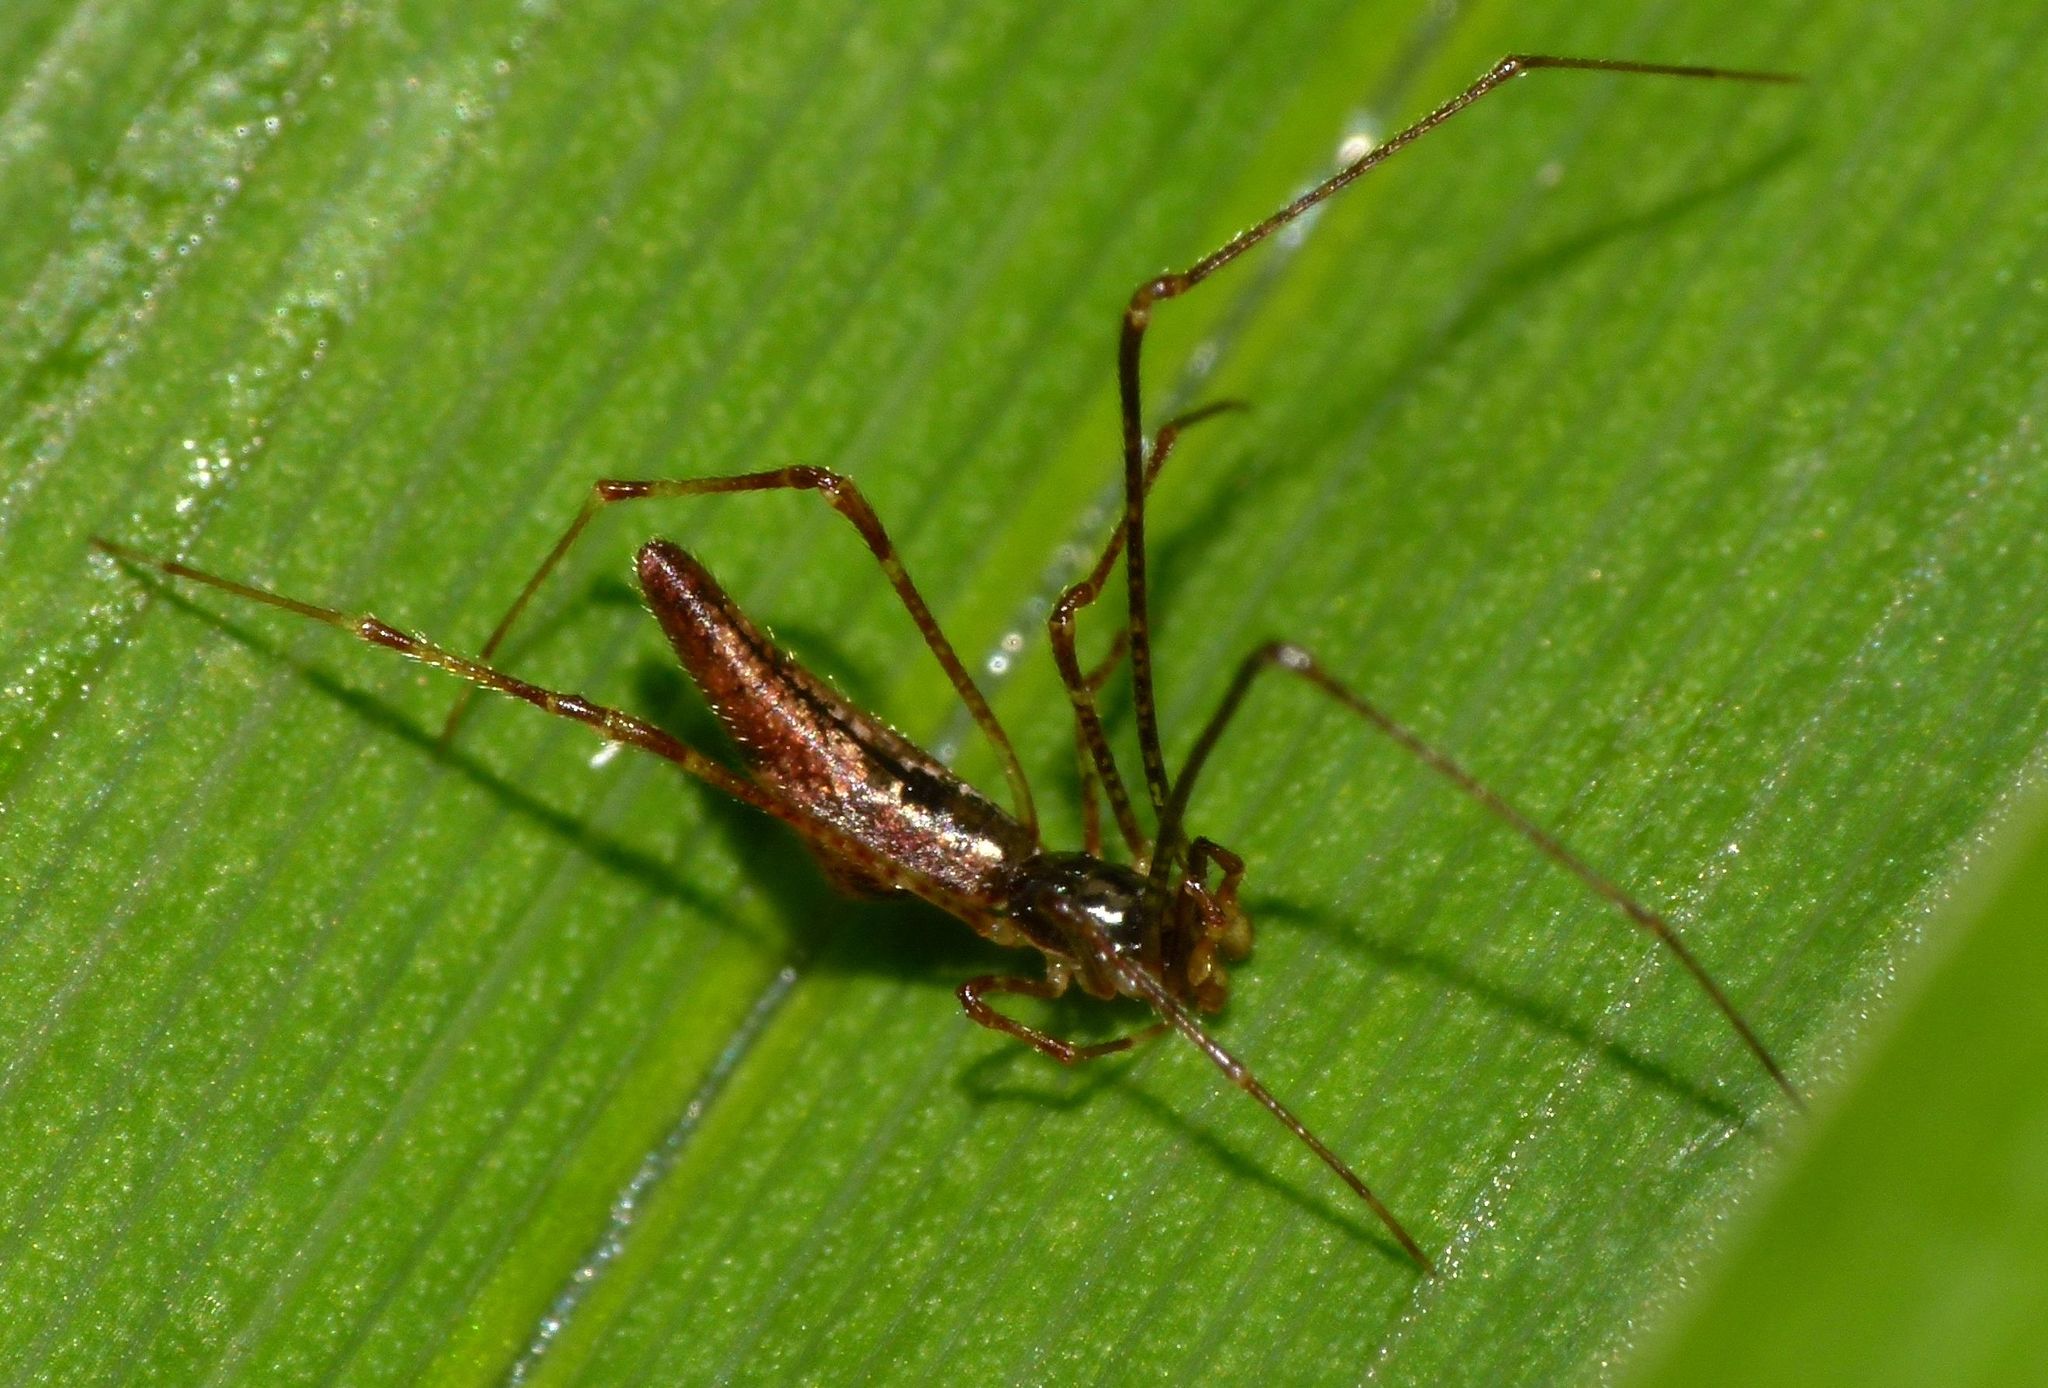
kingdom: Animalia
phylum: Arthropoda
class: Arachnida
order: Araneae
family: Theridiidae
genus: Rhomphaea
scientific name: Rhomphaea urquharti
